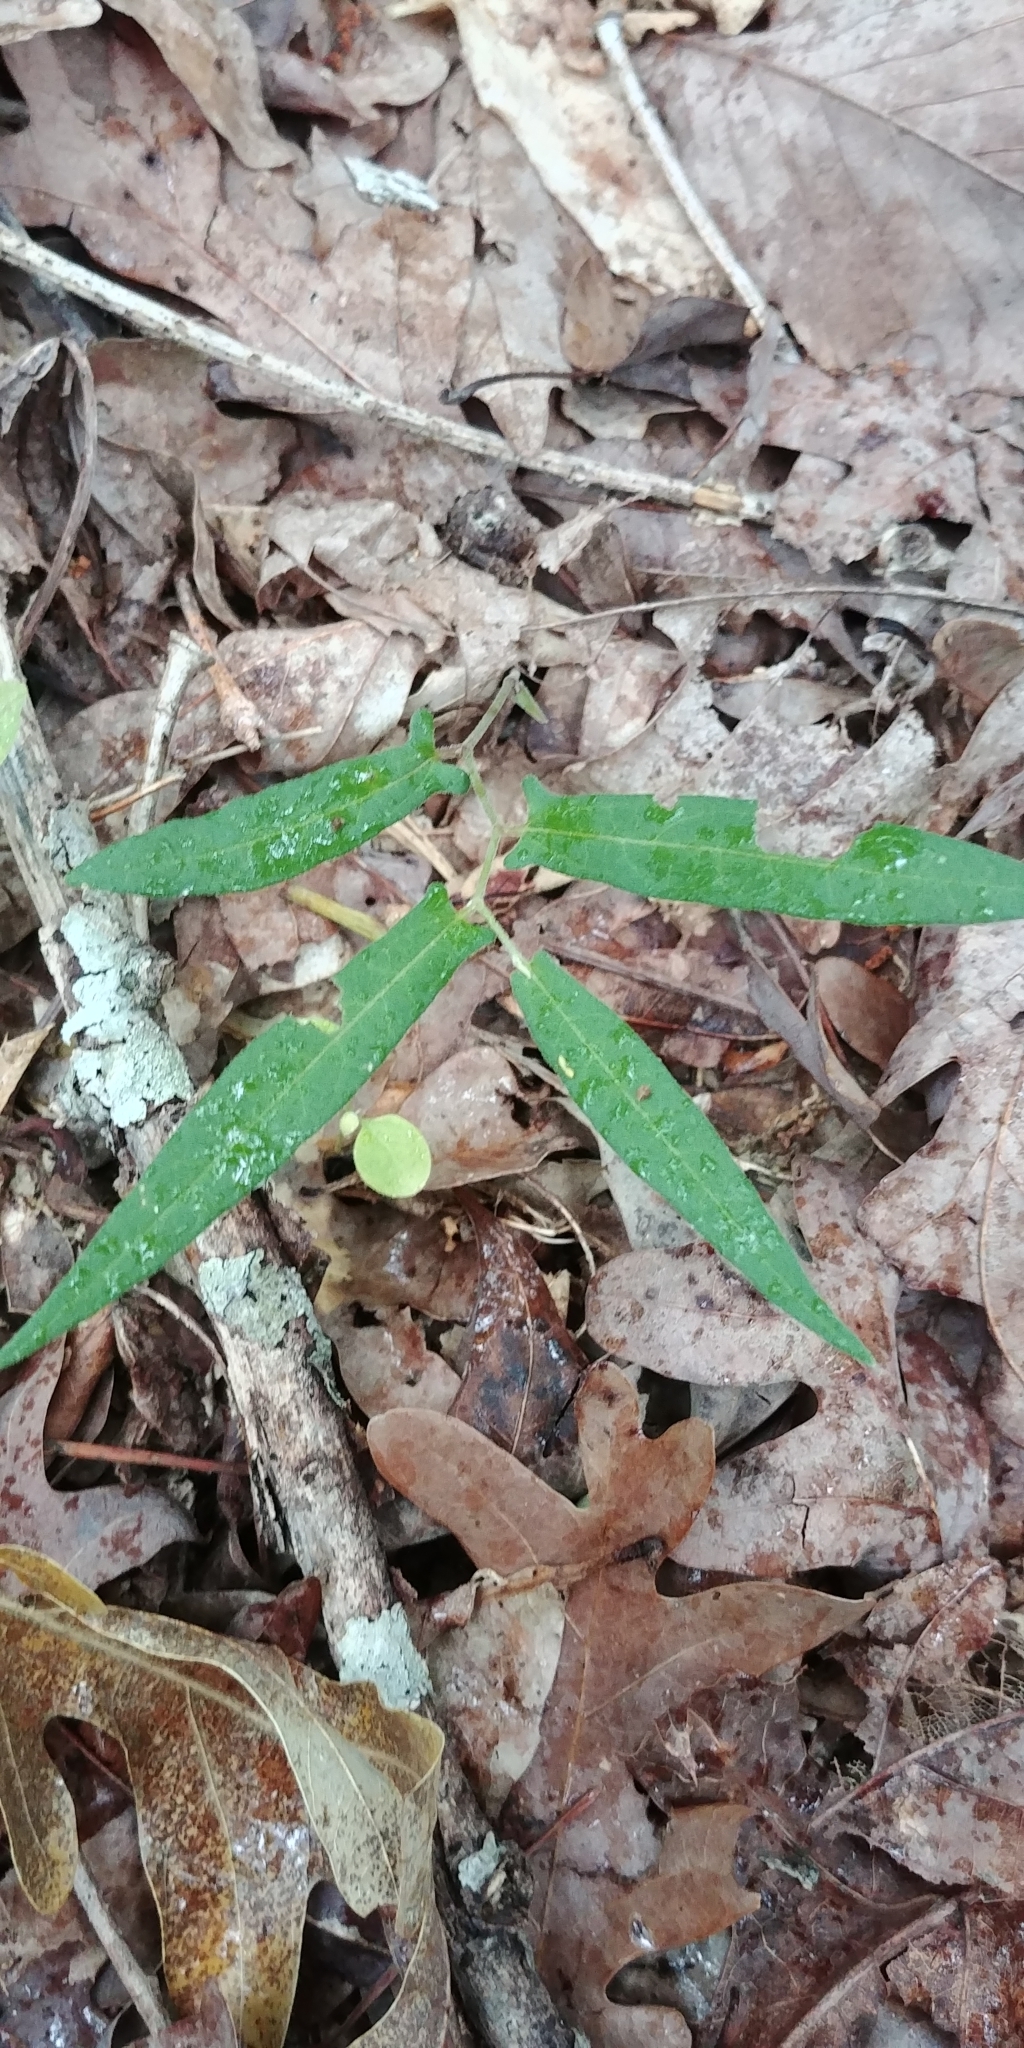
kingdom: Plantae
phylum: Tracheophyta
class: Magnoliopsida
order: Piperales
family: Aristolochiaceae
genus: Endodeca
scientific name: Endodeca serpentaria
